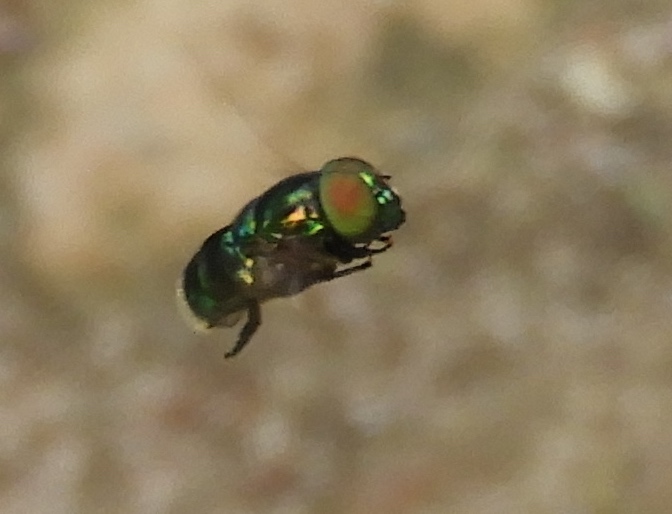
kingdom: Animalia
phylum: Arthropoda
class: Insecta
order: Diptera
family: Syrphidae
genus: Ornidia
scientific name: Ornidia obesa
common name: Syrphid fly
